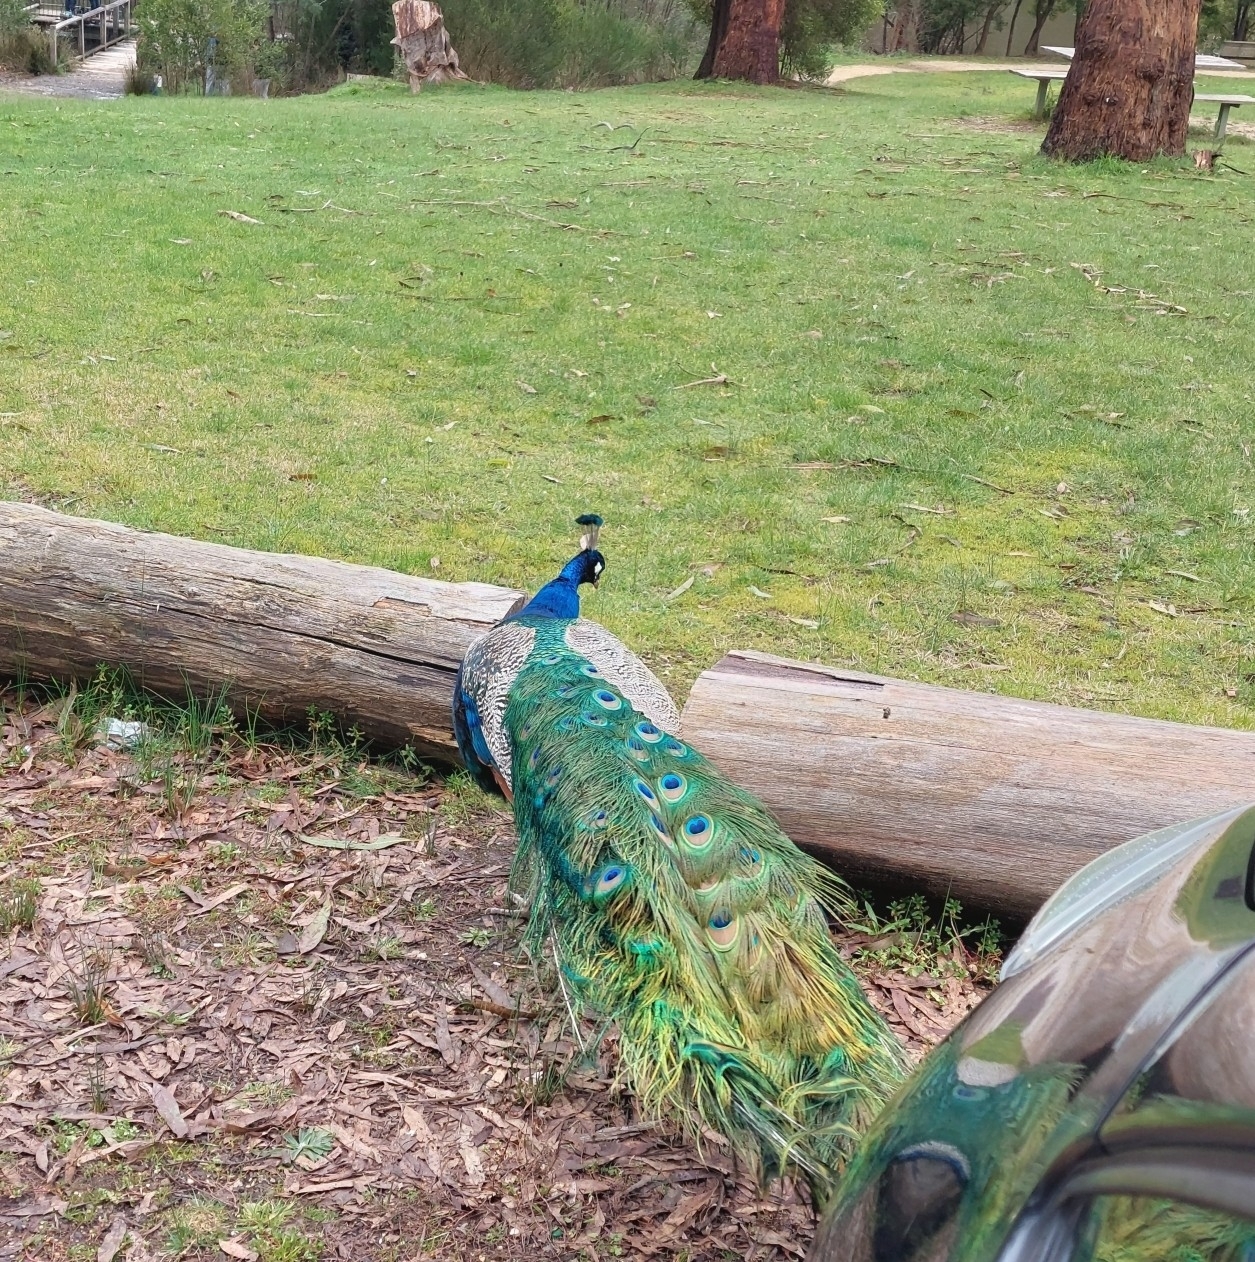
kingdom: Animalia
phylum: Chordata
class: Aves
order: Galliformes
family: Phasianidae
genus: Pavo
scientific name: Pavo cristatus
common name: Indian peafowl
